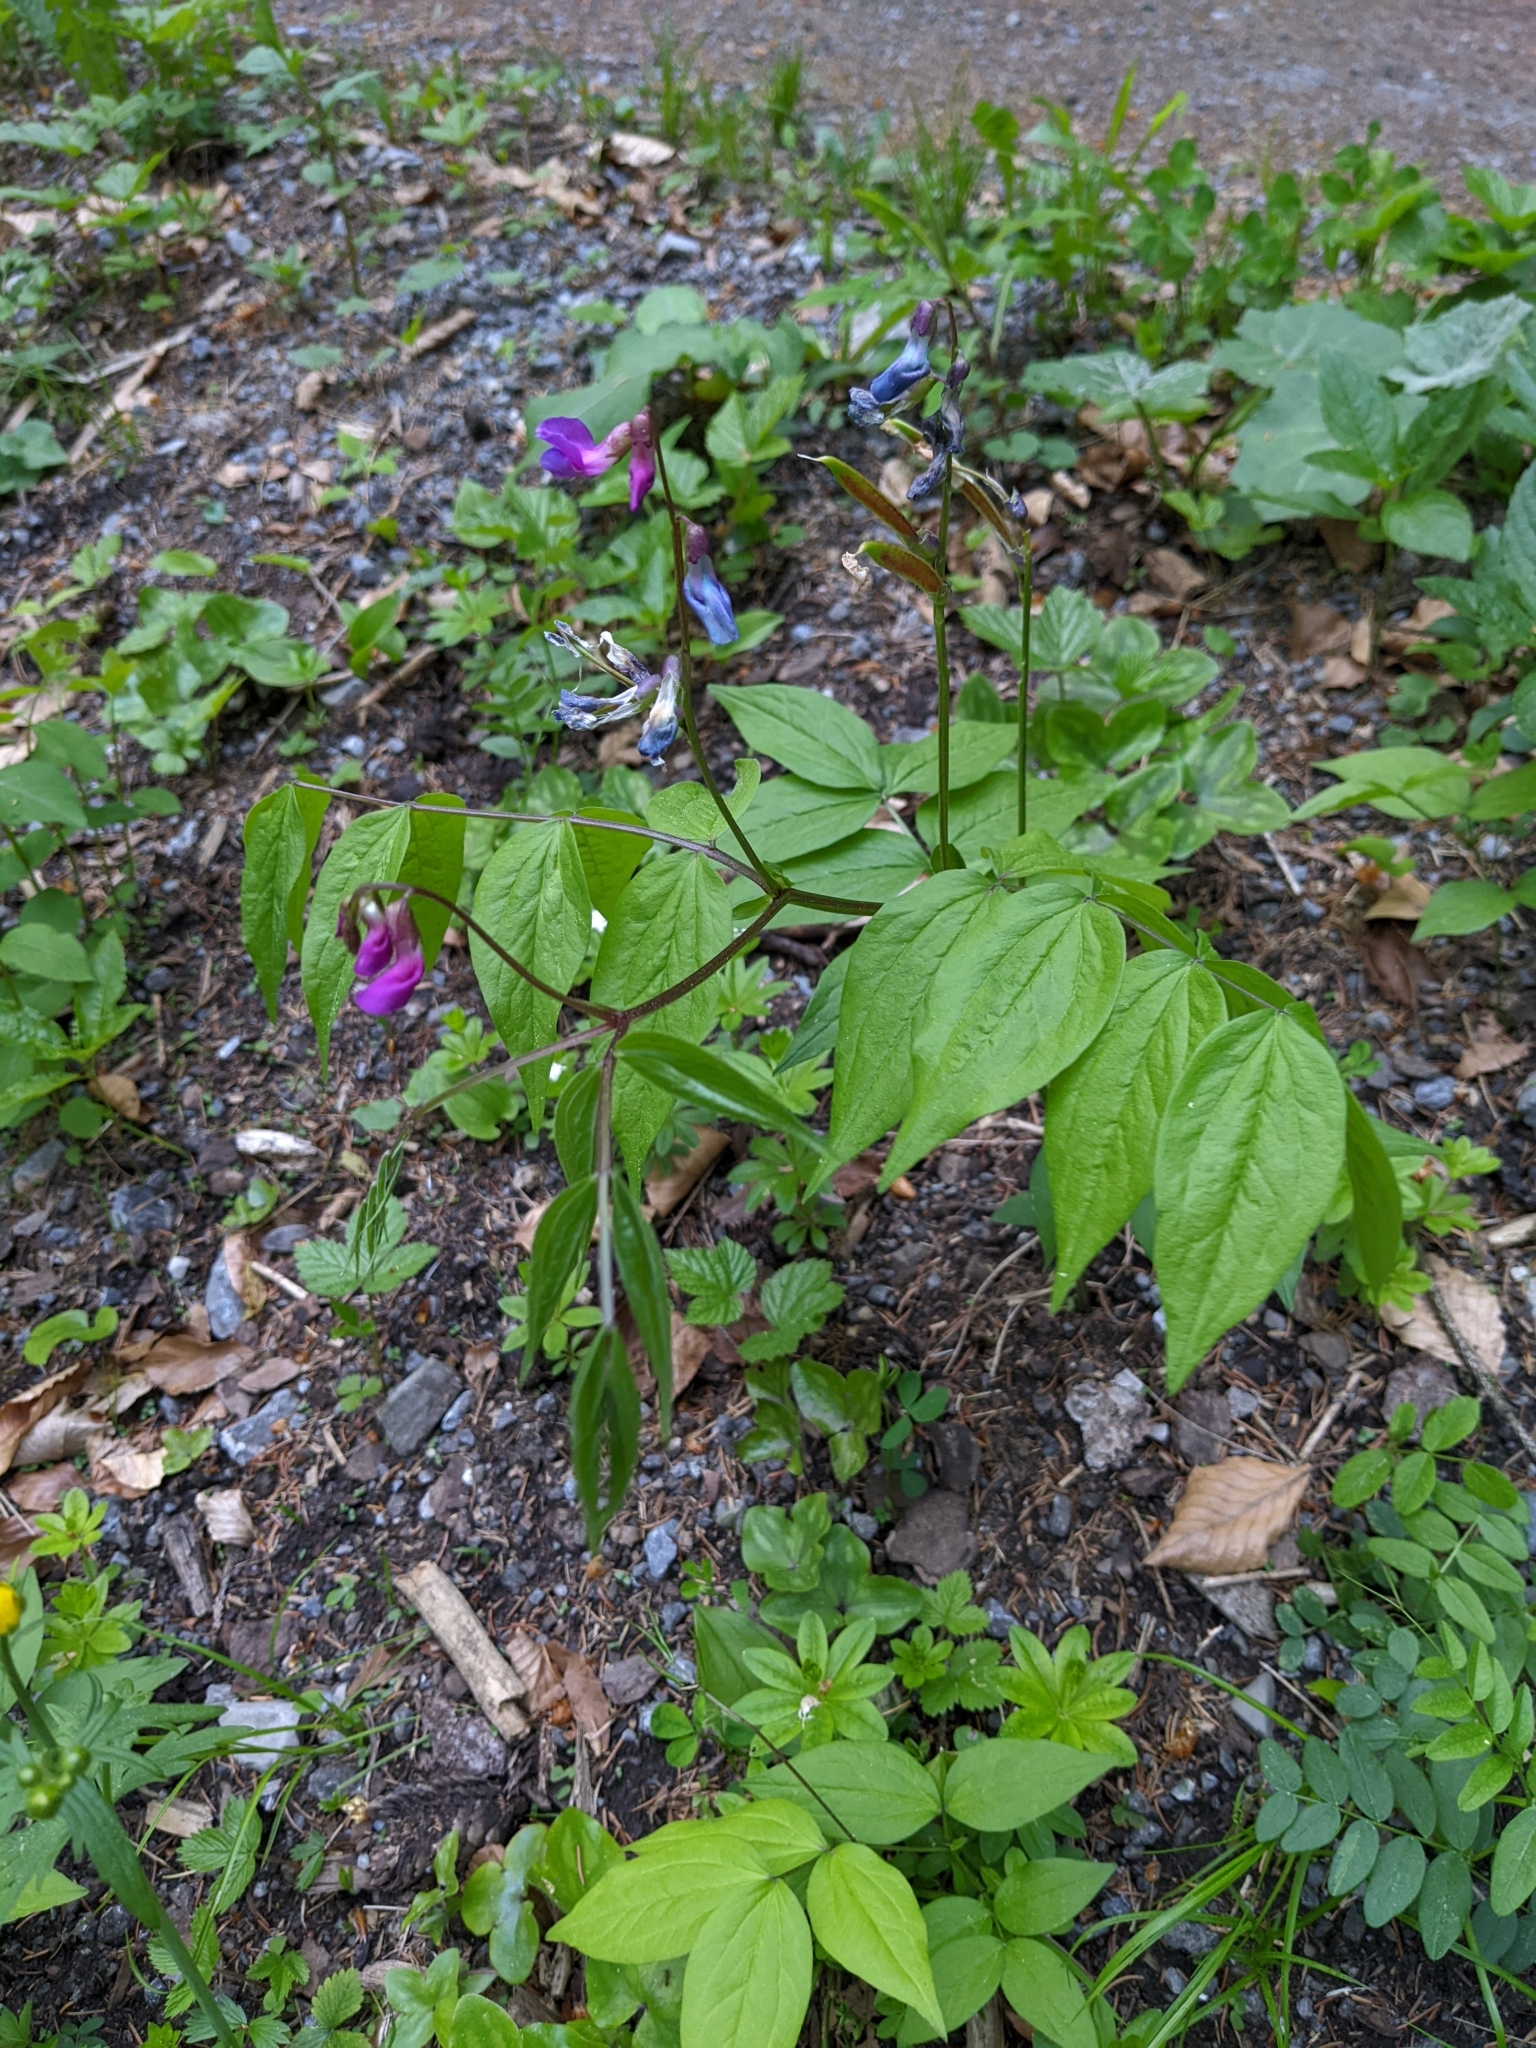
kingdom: Plantae
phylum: Tracheophyta
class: Magnoliopsida
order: Fabales
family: Fabaceae
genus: Lathyrus
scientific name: Lathyrus vernus
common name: Spring pea
